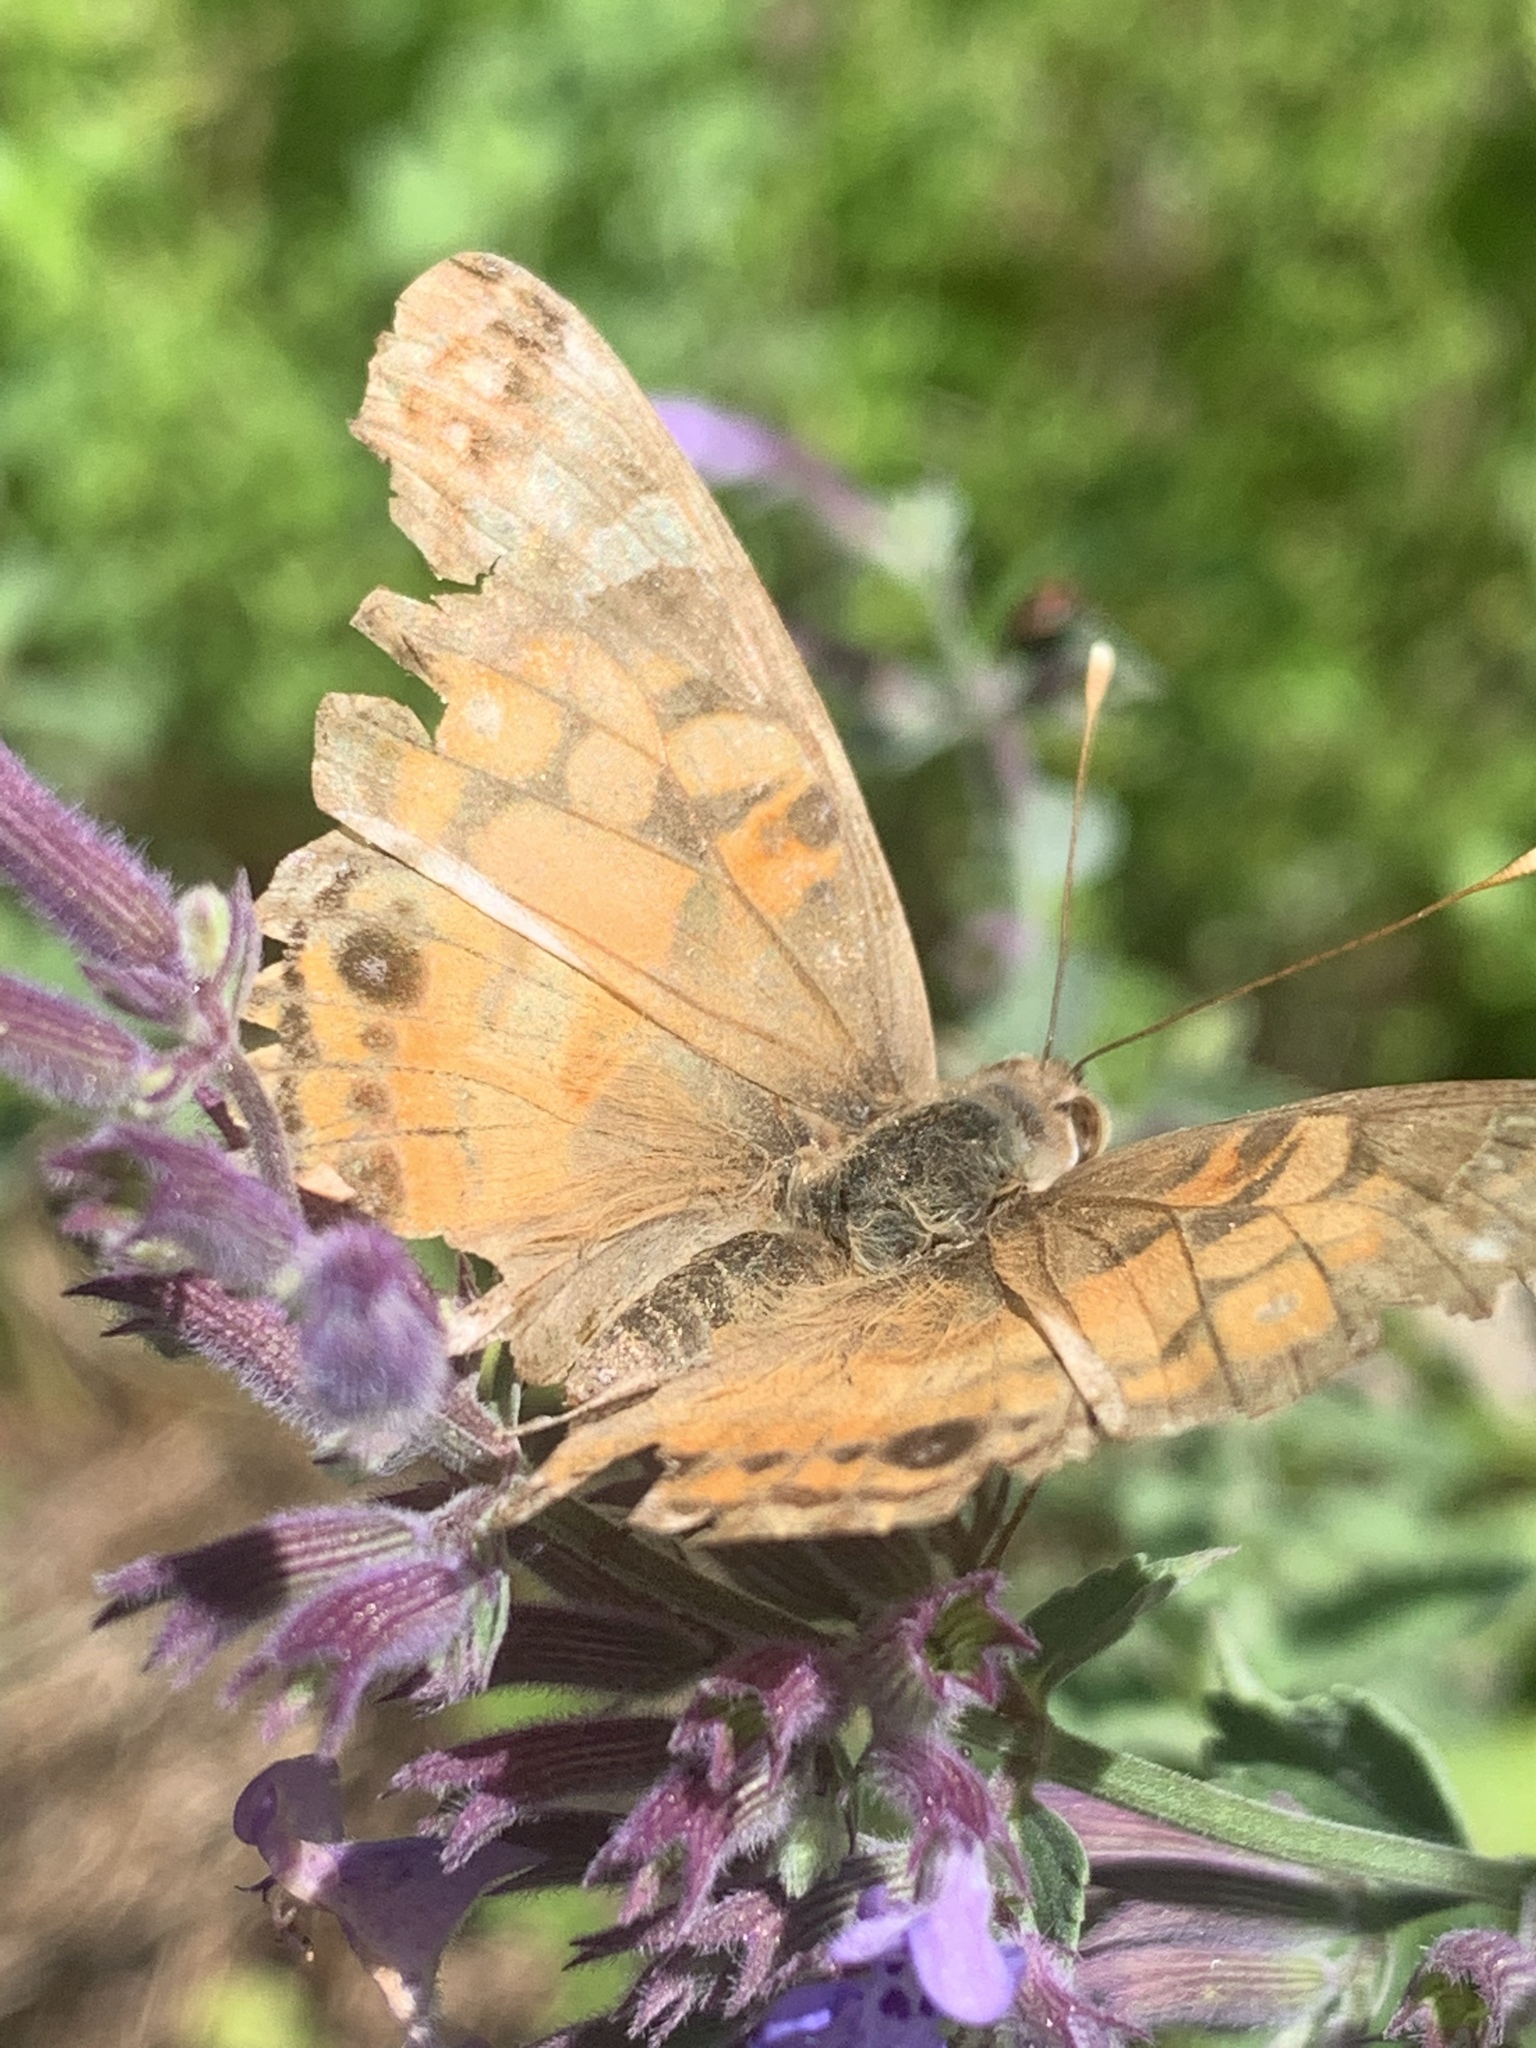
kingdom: Animalia
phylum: Arthropoda
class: Insecta
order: Lepidoptera
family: Nymphalidae
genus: Vanessa
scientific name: Vanessa virginiensis
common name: American lady
